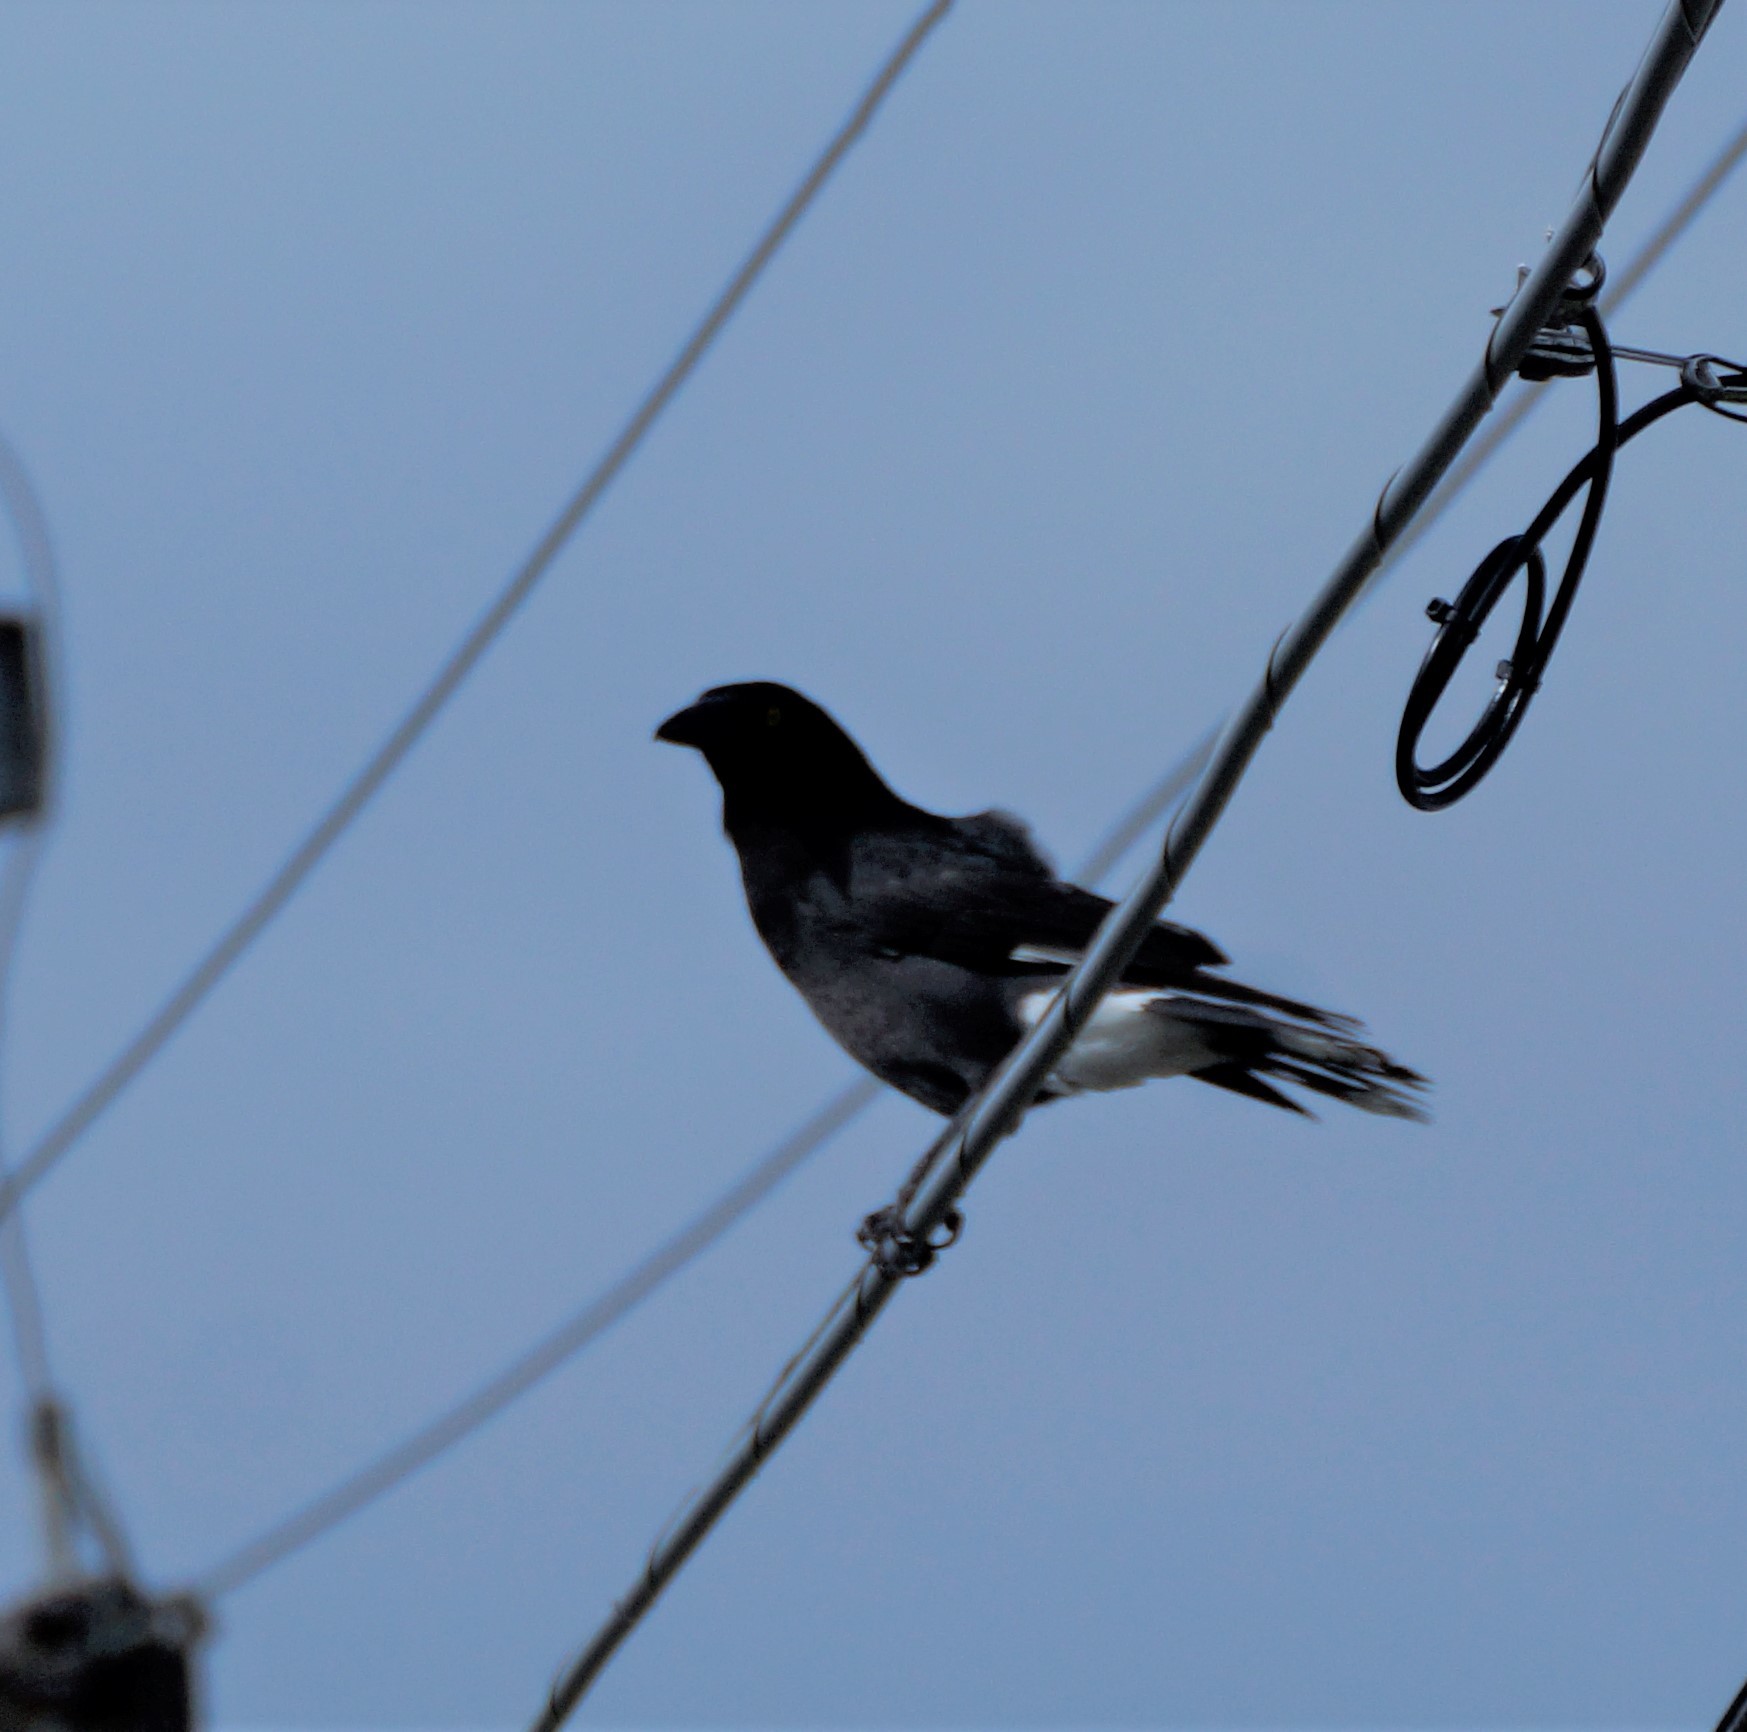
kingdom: Animalia
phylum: Chordata
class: Aves
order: Passeriformes
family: Cracticidae
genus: Strepera
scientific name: Strepera graculina
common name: Pied currawong
